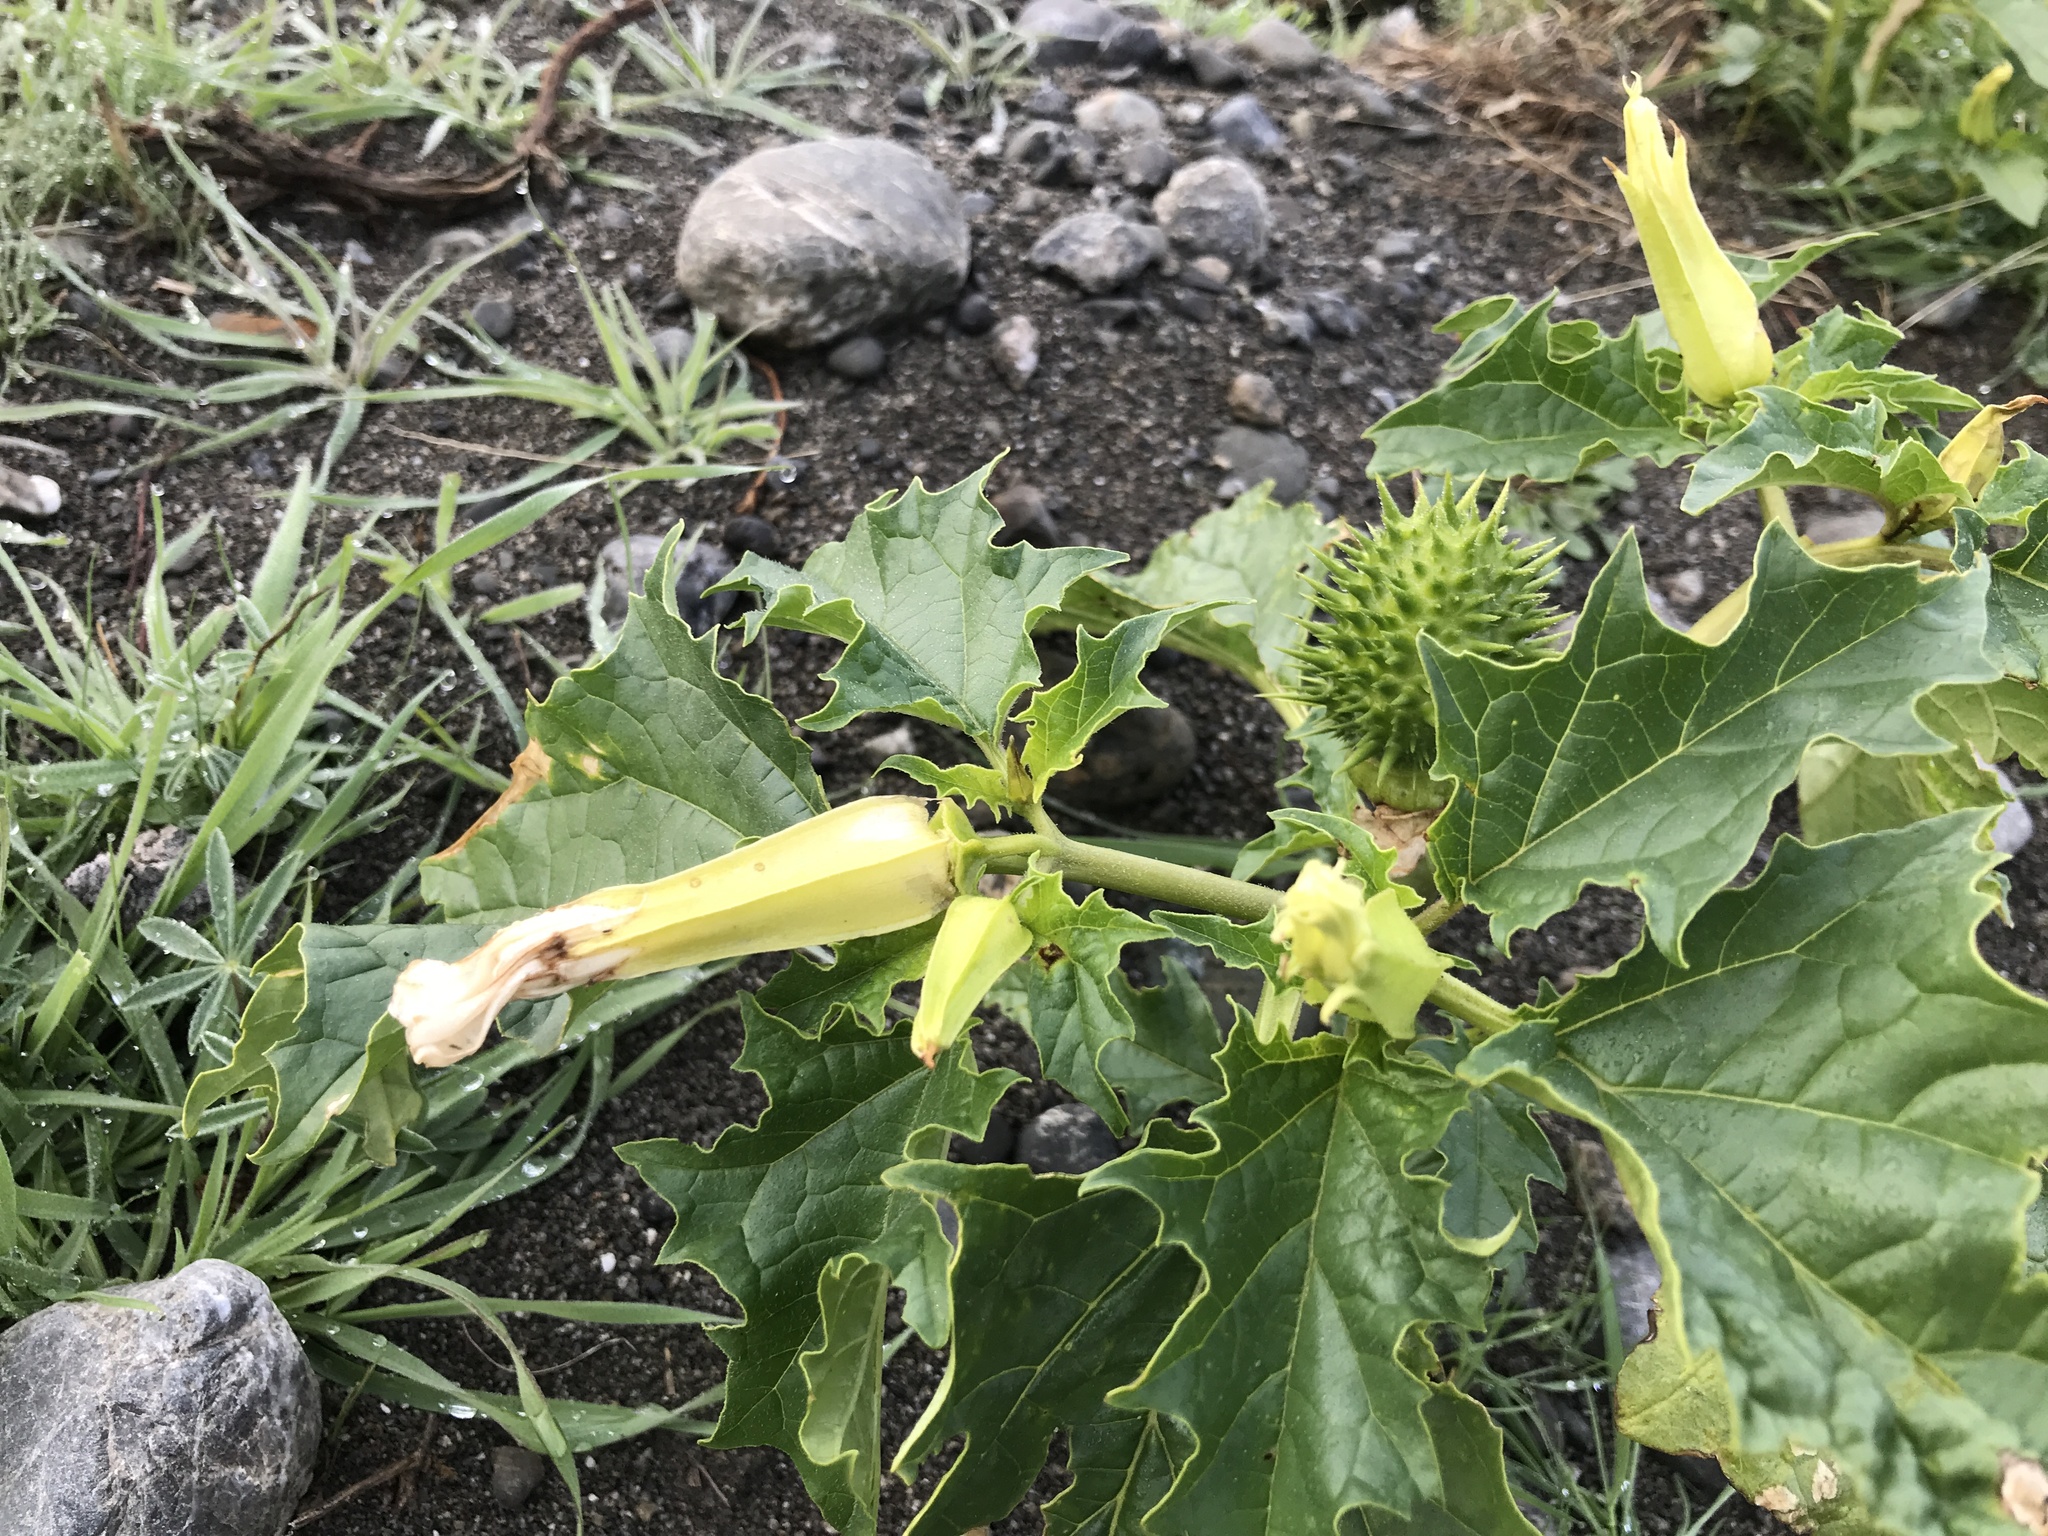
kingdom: Plantae
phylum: Tracheophyta
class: Magnoliopsida
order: Solanales
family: Solanaceae
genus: Datura
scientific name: Datura stramonium
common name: Thorn-apple
